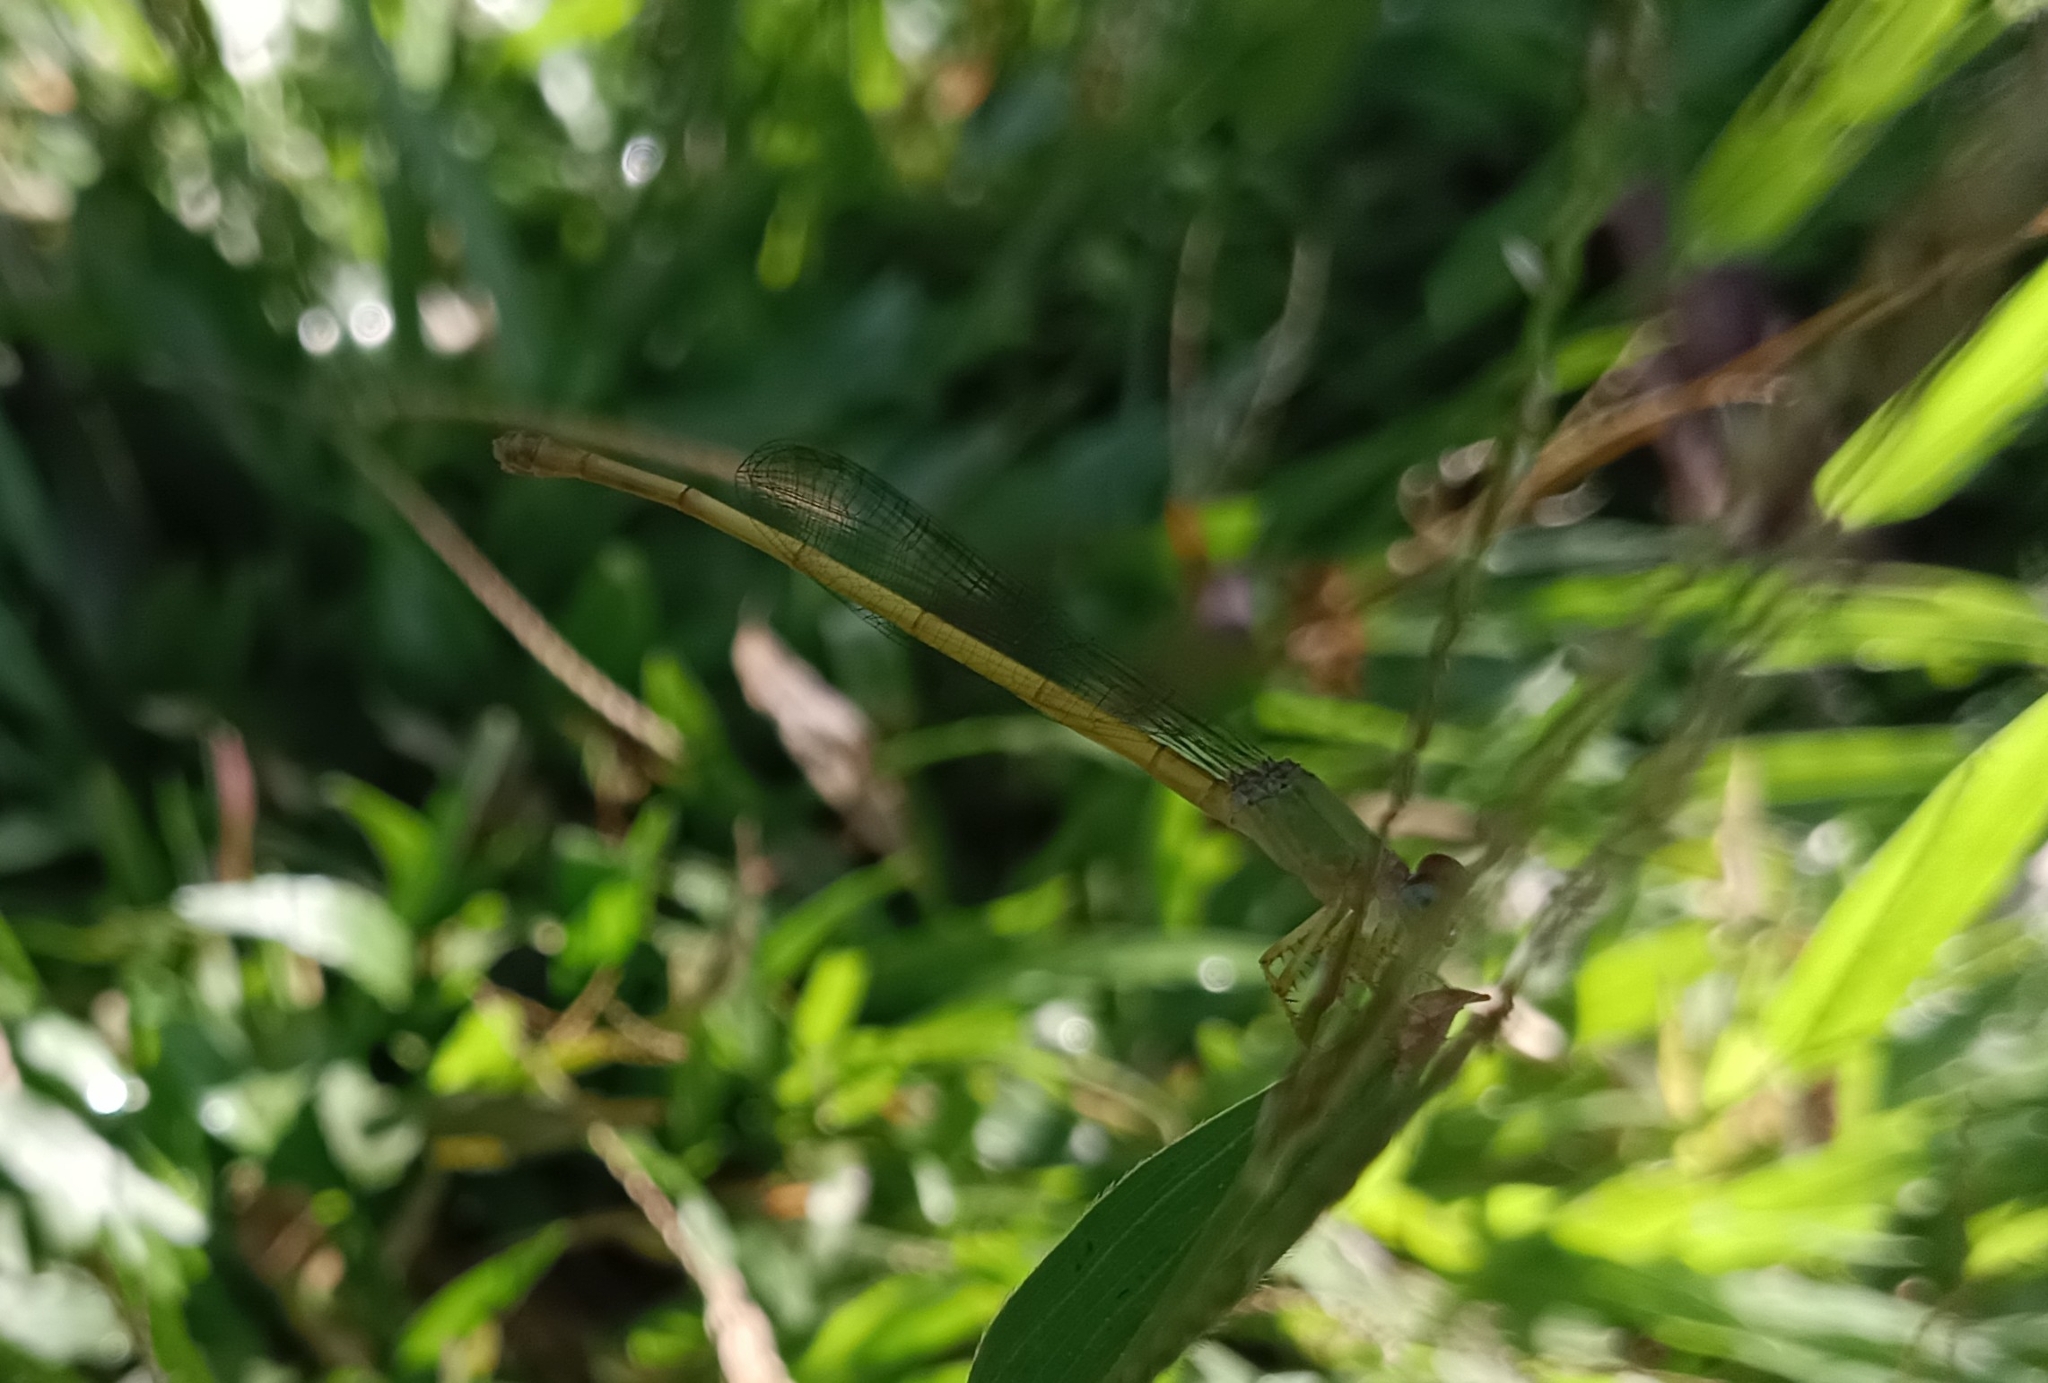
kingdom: Animalia
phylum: Arthropoda
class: Insecta
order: Odonata
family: Coenagrionidae
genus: Ceriagrion
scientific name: Ceriagrion coromandelianum
